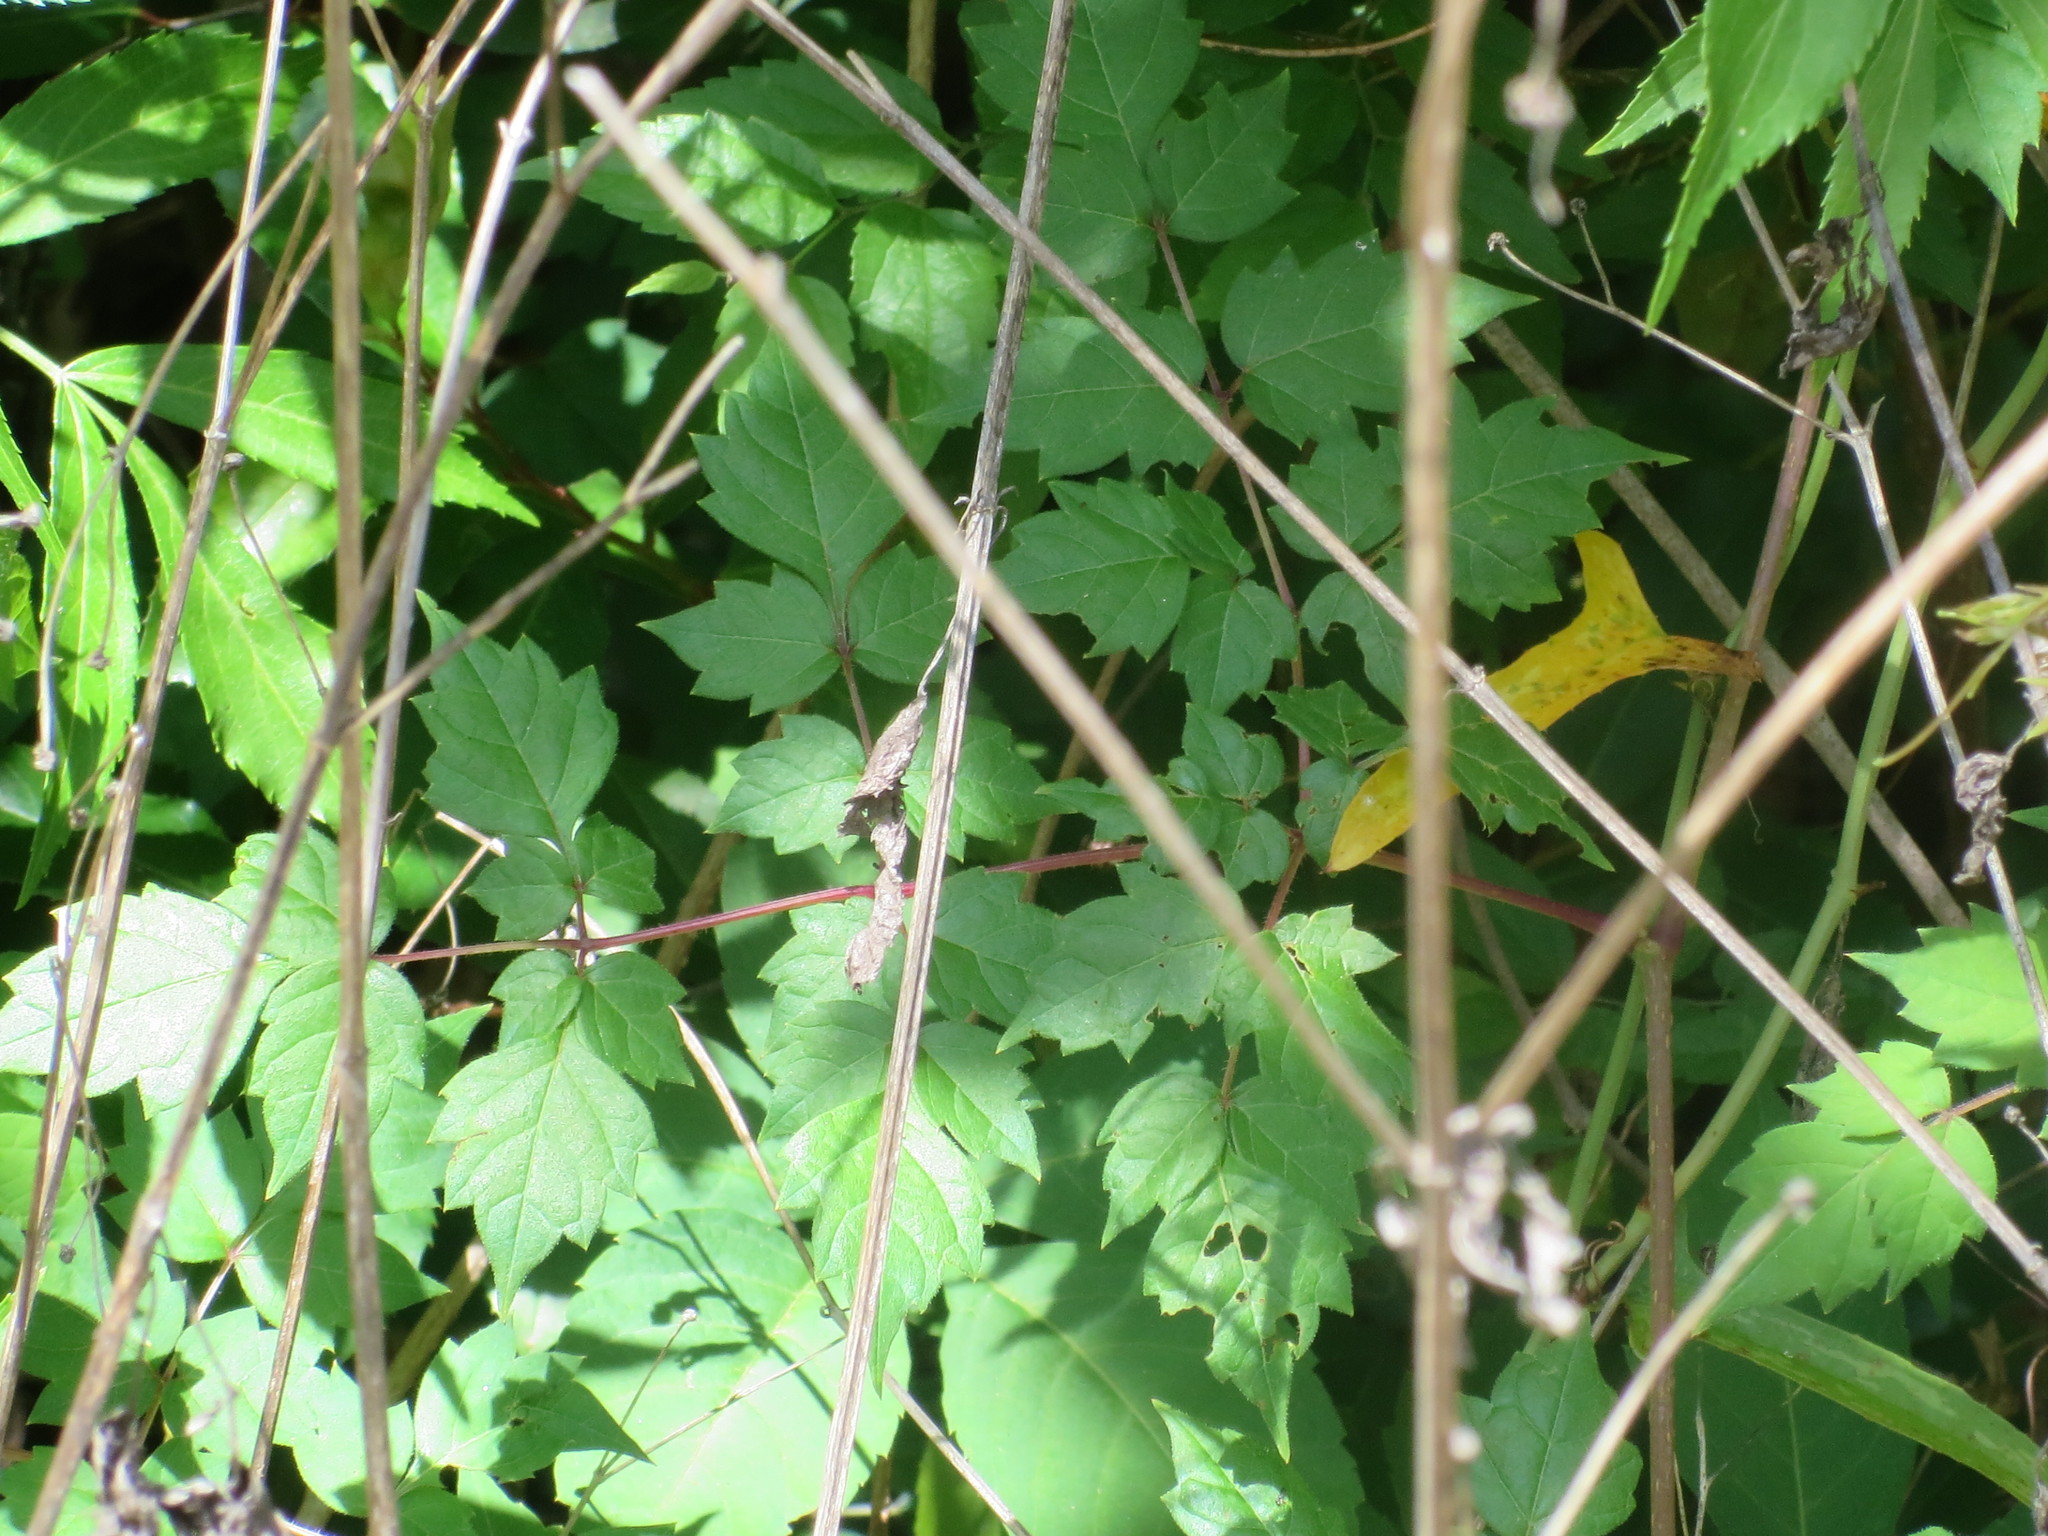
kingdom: Plantae
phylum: Tracheophyta
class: Magnoliopsida
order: Vitales
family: Vitaceae
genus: Nekemias
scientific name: Nekemias arborea
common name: Peppervine
